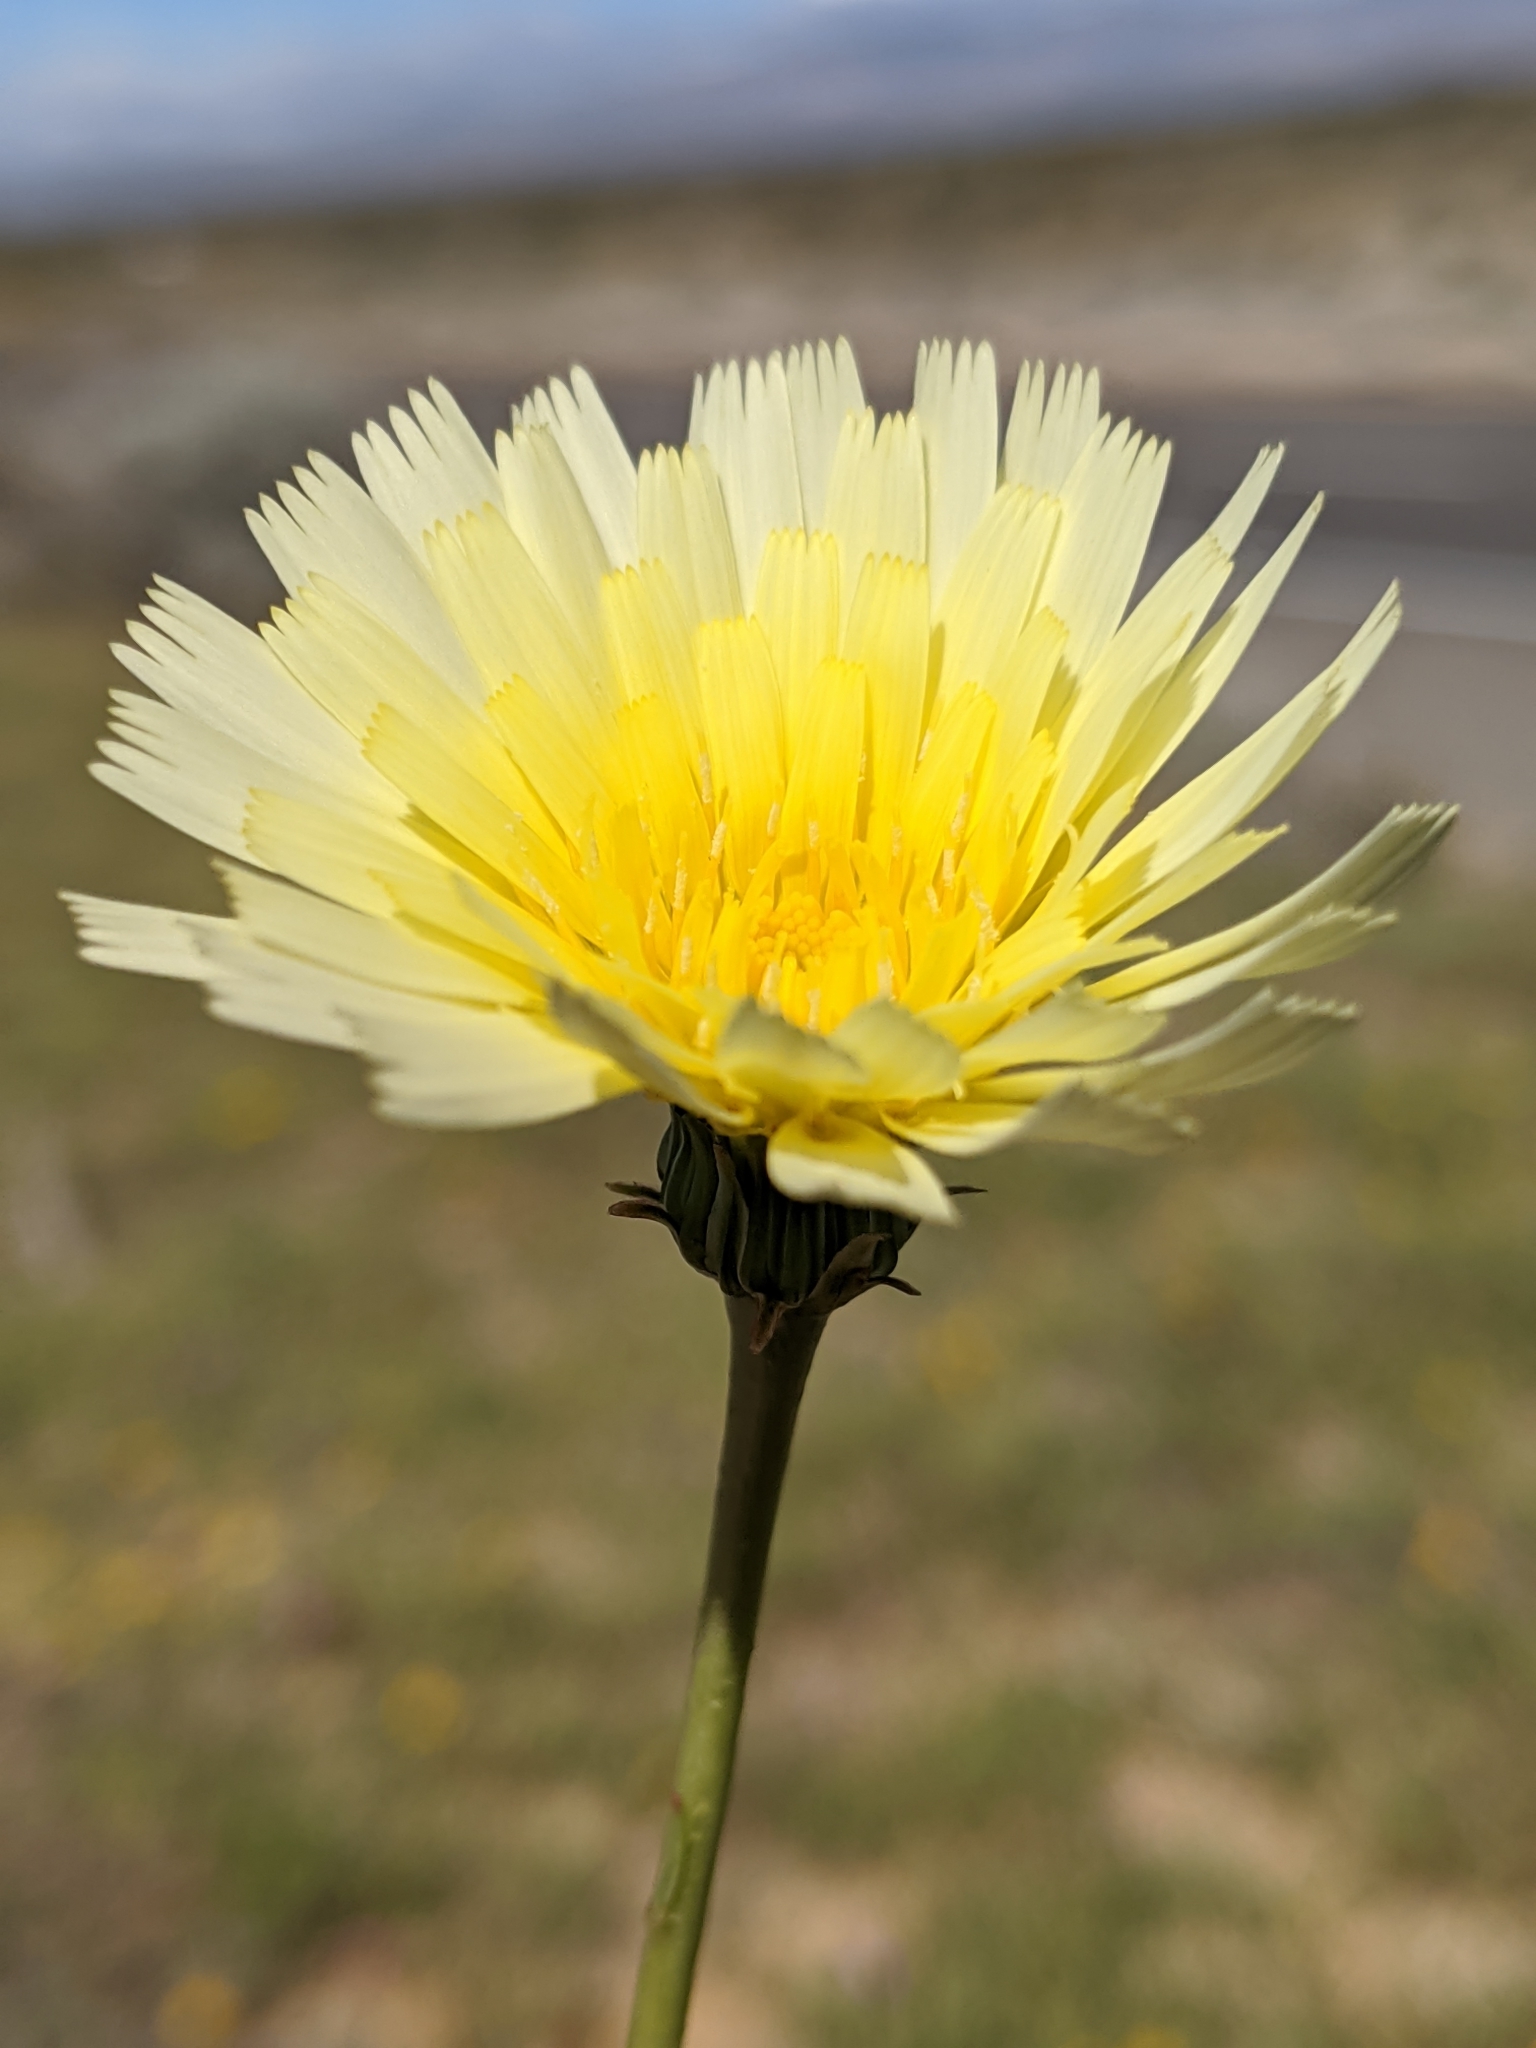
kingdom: Plantae
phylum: Tracheophyta
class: Magnoliopsida
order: Asterales
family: Asteraceae
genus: Malacothrix
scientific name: Malacothrix glabrata
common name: Smooth desert-dandelion
